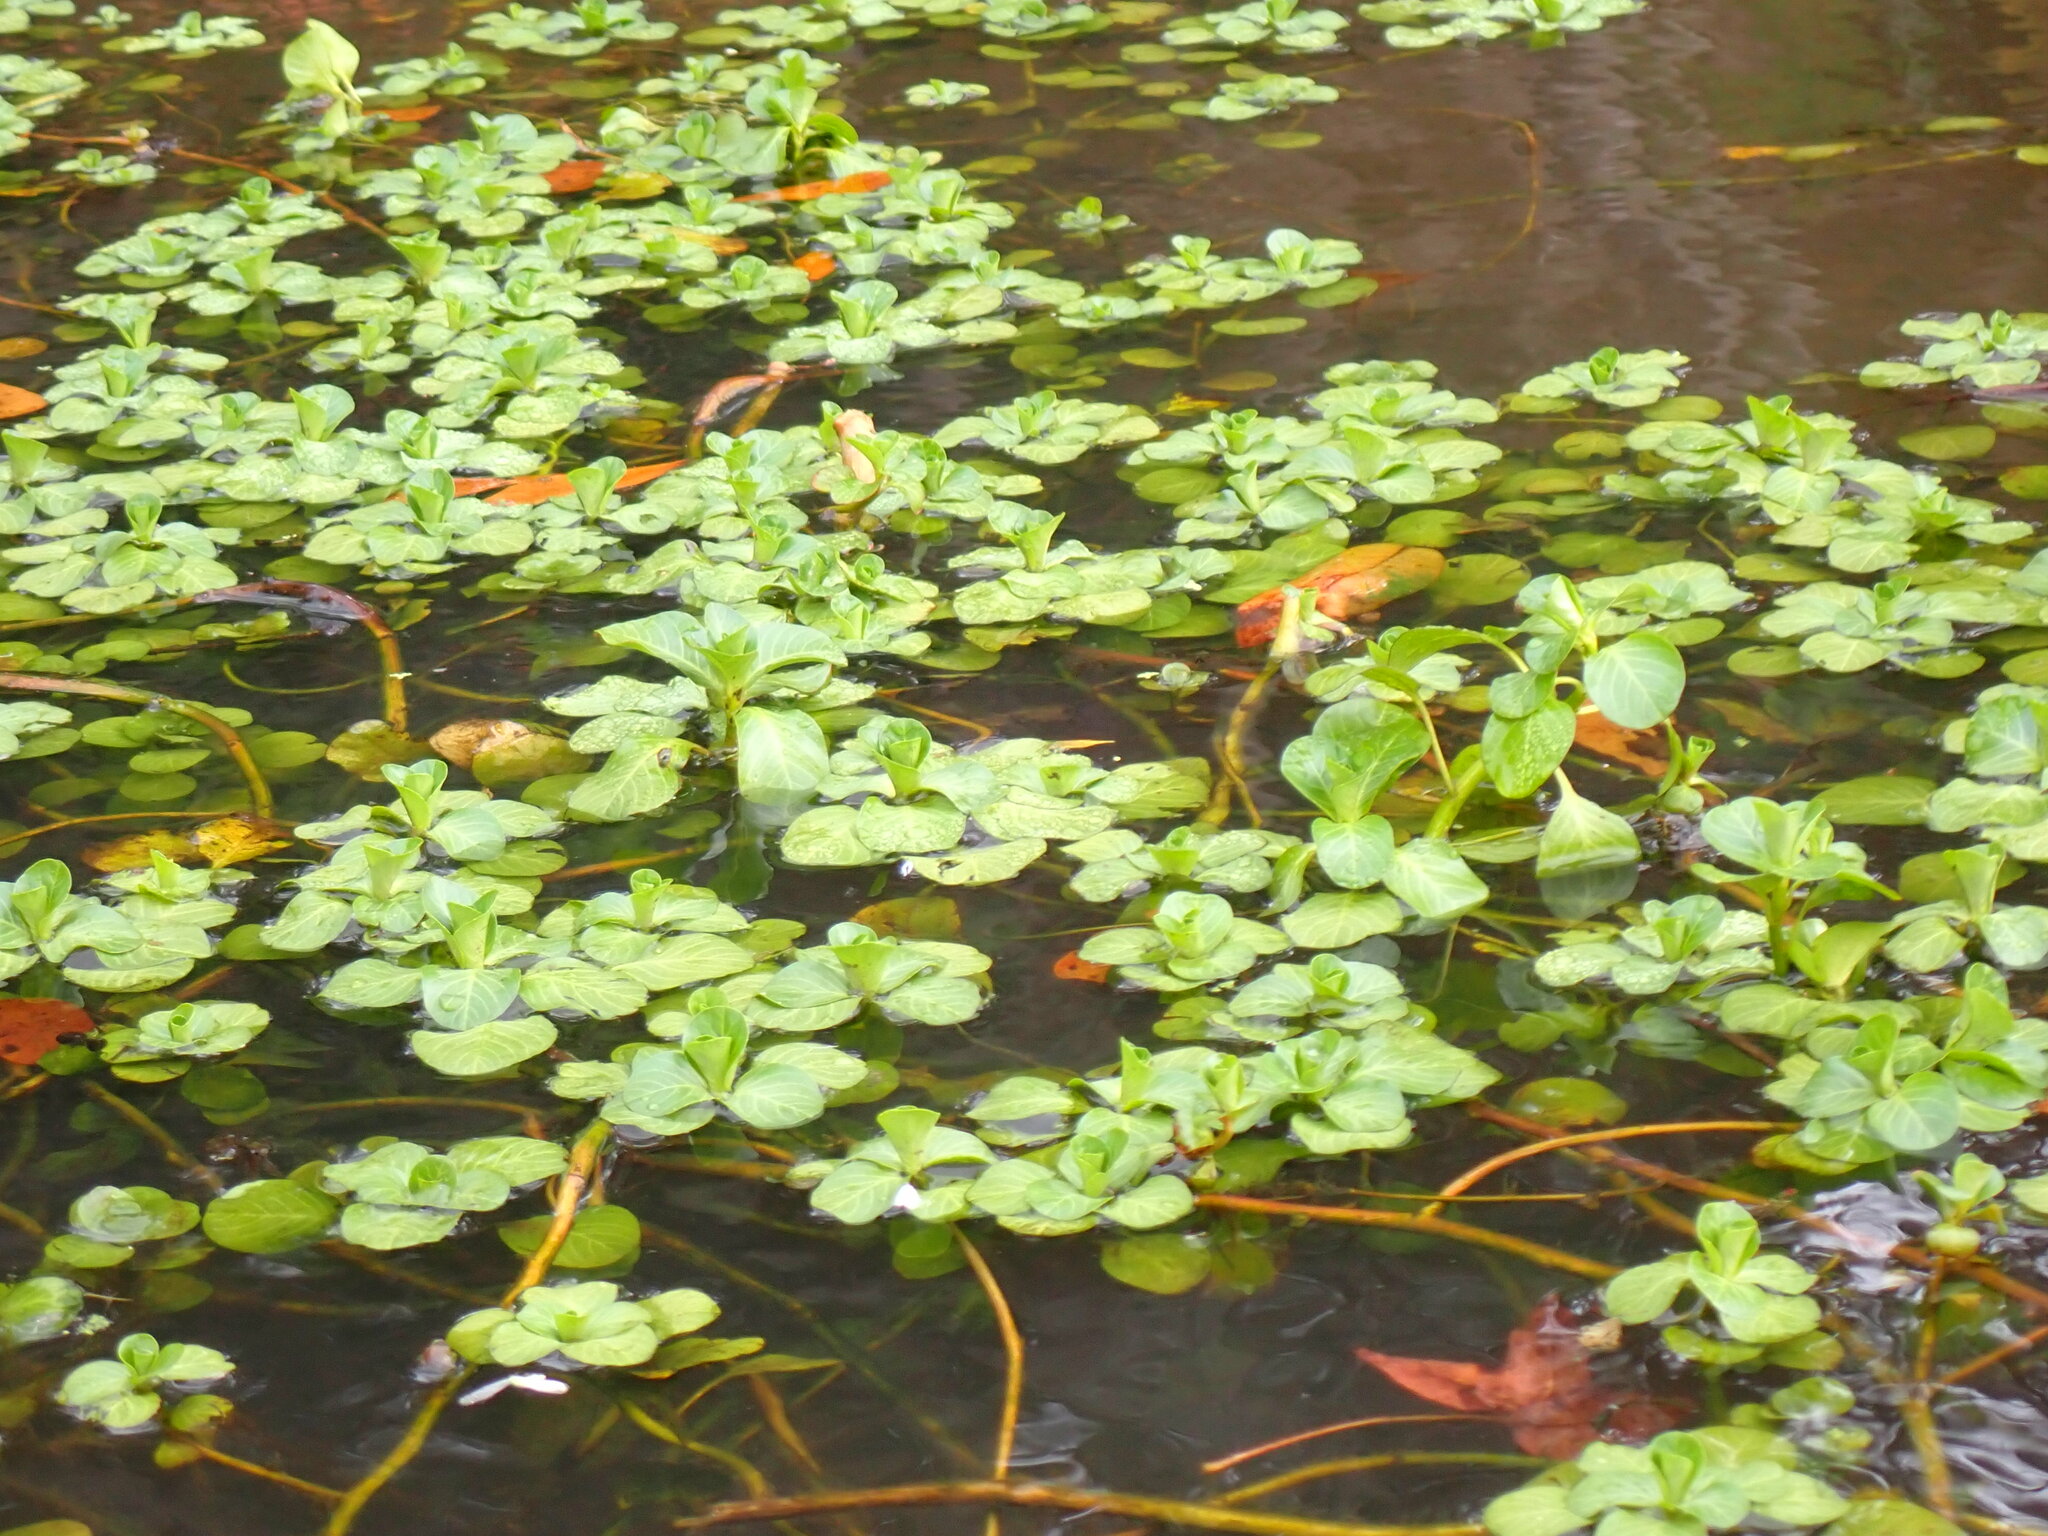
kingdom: Plantae
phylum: Tracheophyta
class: Magnoliopsida
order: Myrtales
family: Onagraceae
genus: Ludwigia
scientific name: Ludwigia peploides
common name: Floating primrose-willow
